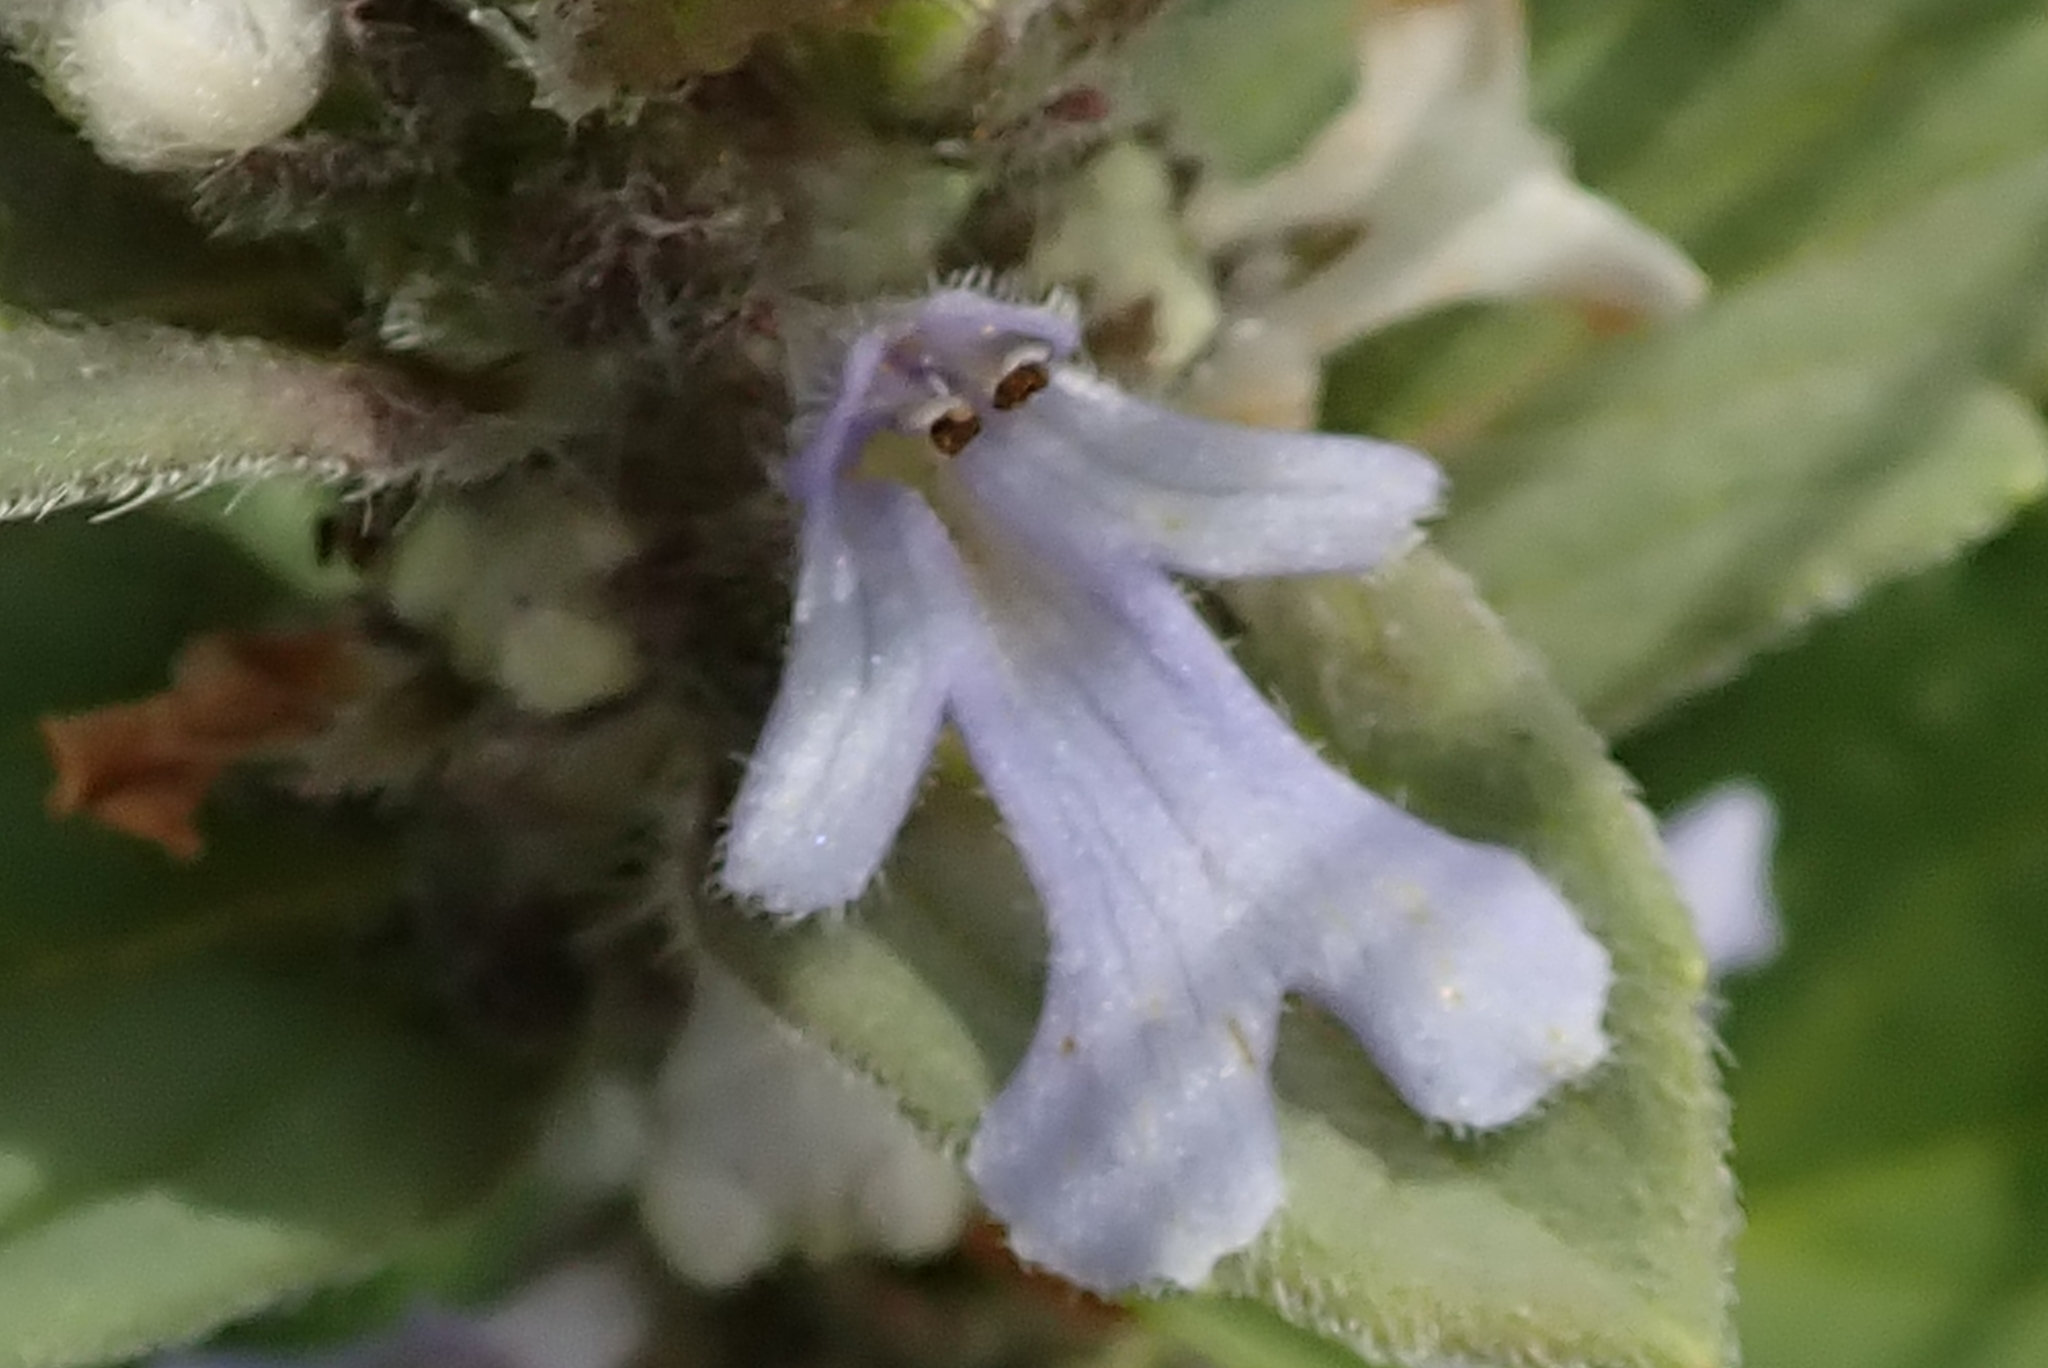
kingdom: Plantae
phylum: Tracheophyta
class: Magnoliopsida
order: Lamiales
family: Lamiaceae
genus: Ajuga
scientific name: Ajuga ophrydis
